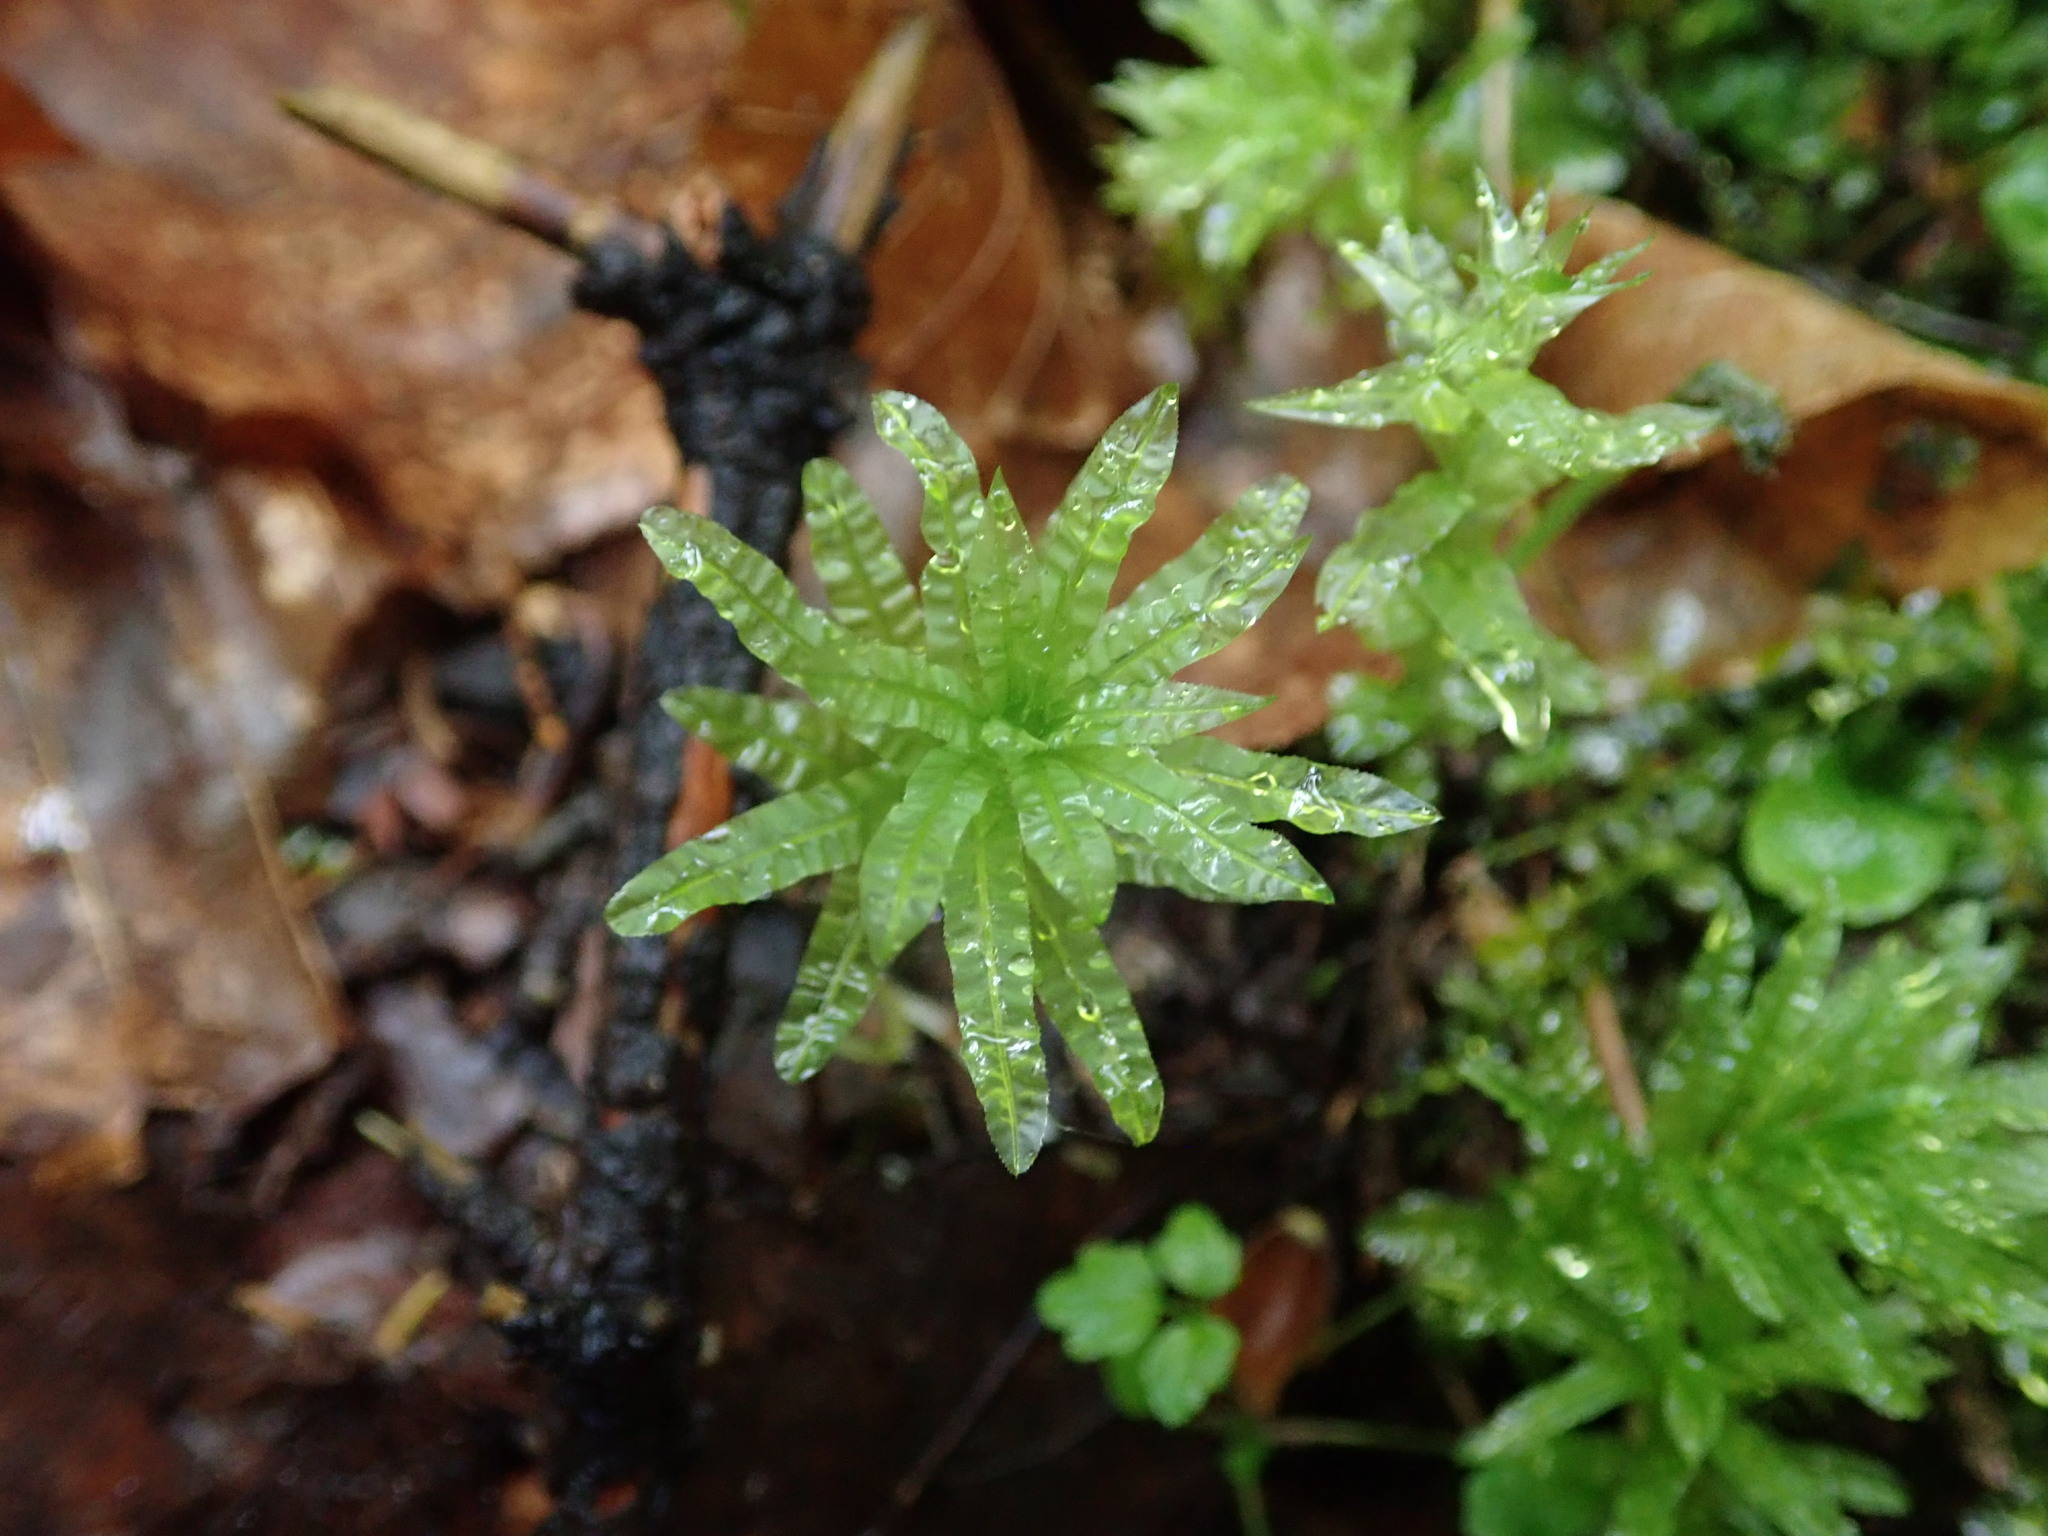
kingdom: Plantae
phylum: Bryophyta
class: Bryopsida
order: Bryales
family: Mniaceae
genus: Plagiomnium
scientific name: Plagiomnium undulatum
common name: Hart's-tongue thyme-moss
